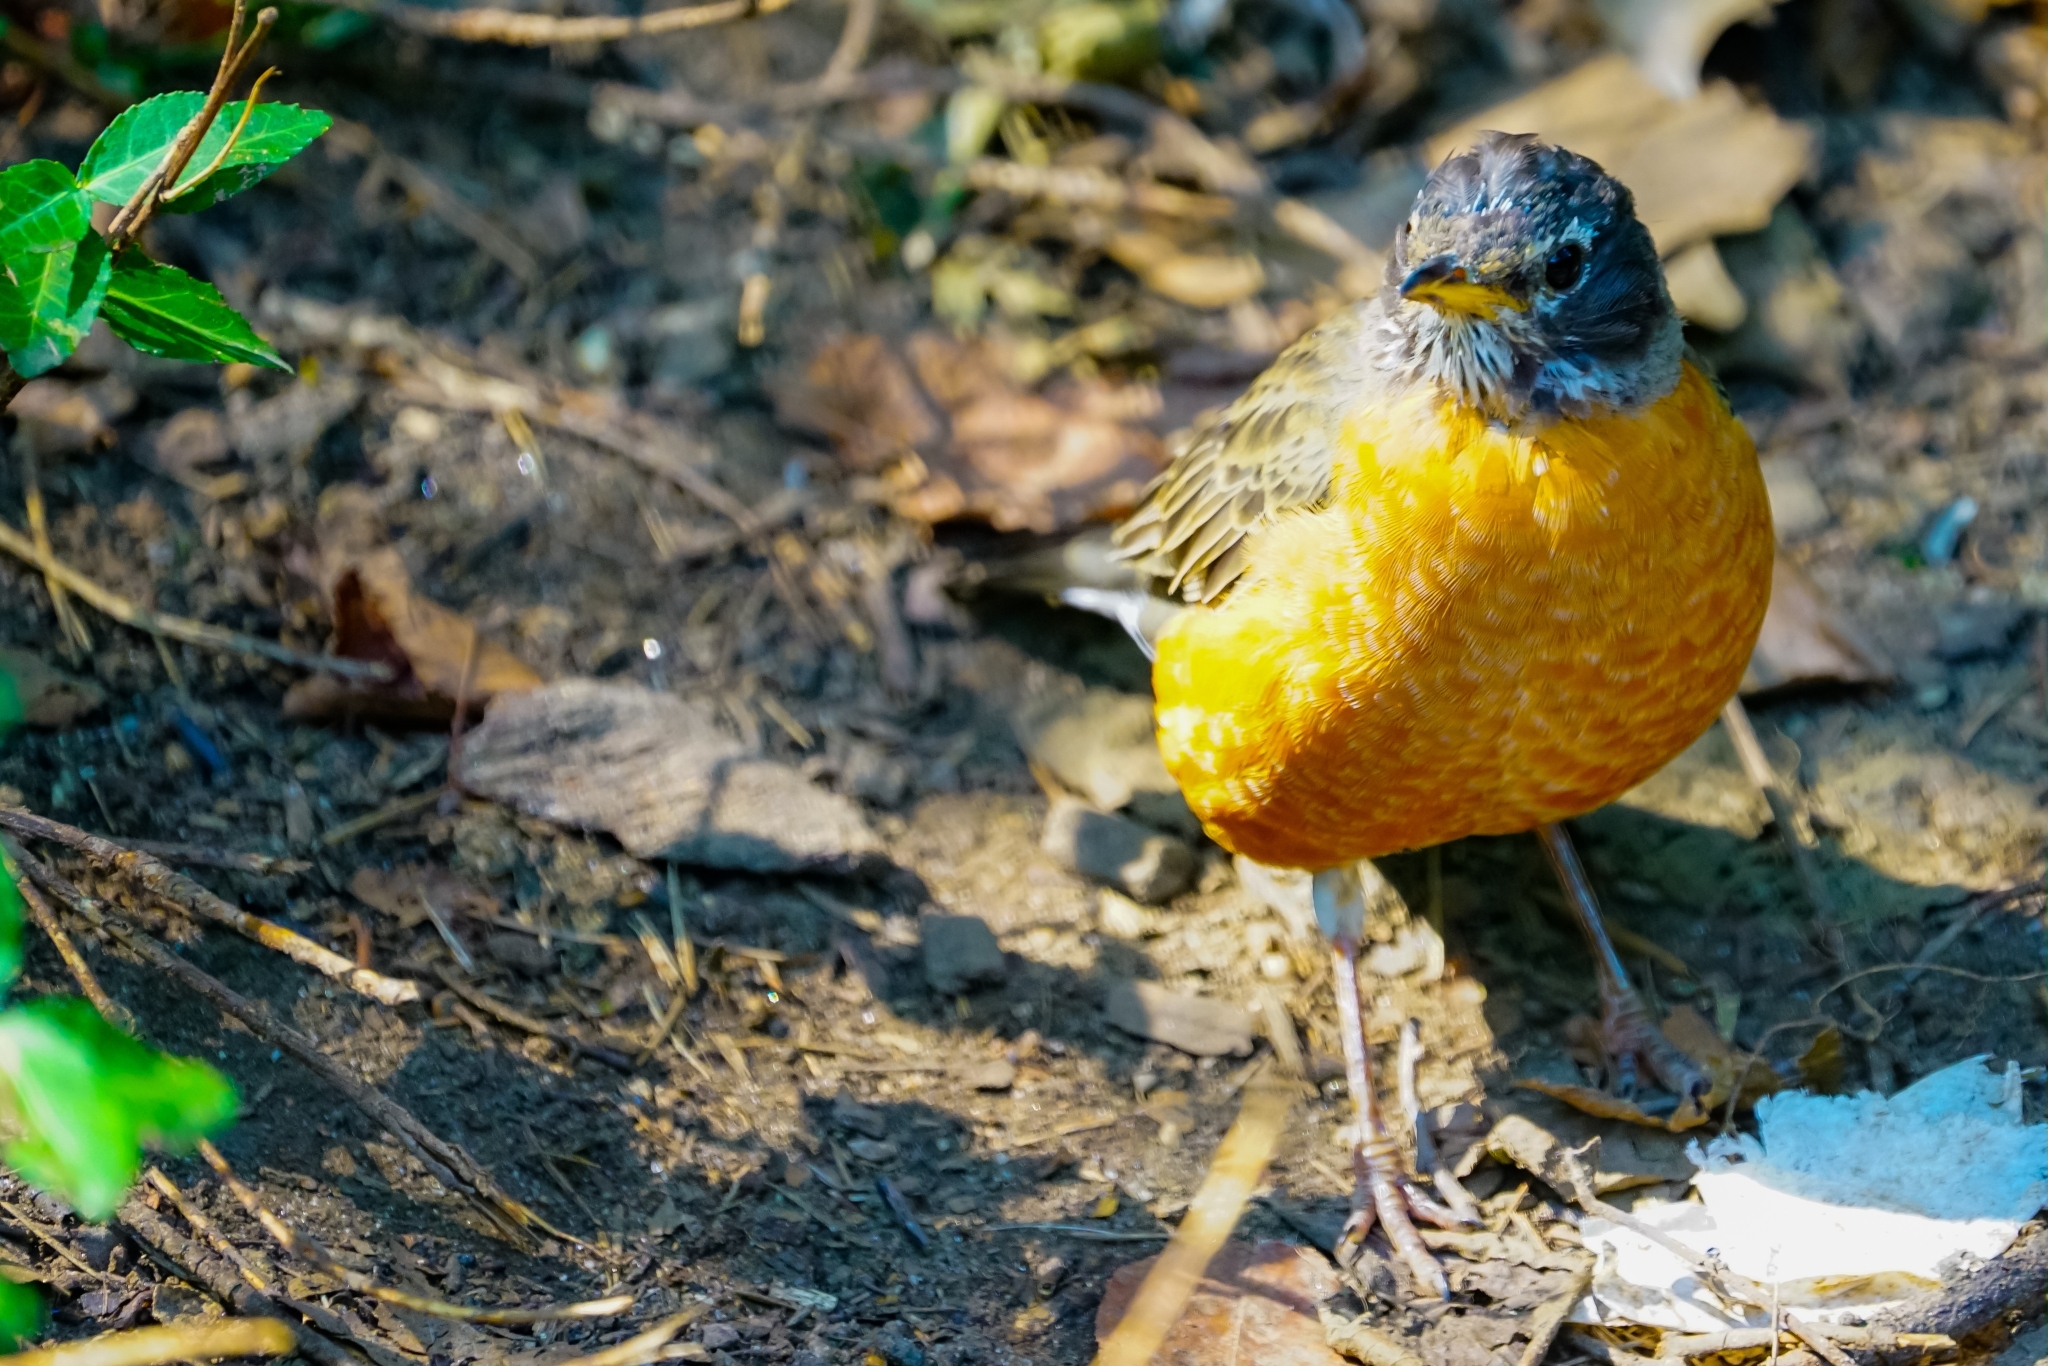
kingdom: Animalia
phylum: Chordata
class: Aves
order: Passeriformes
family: Turdidae
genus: Turdus
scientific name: Turdus migratorius
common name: American robin
